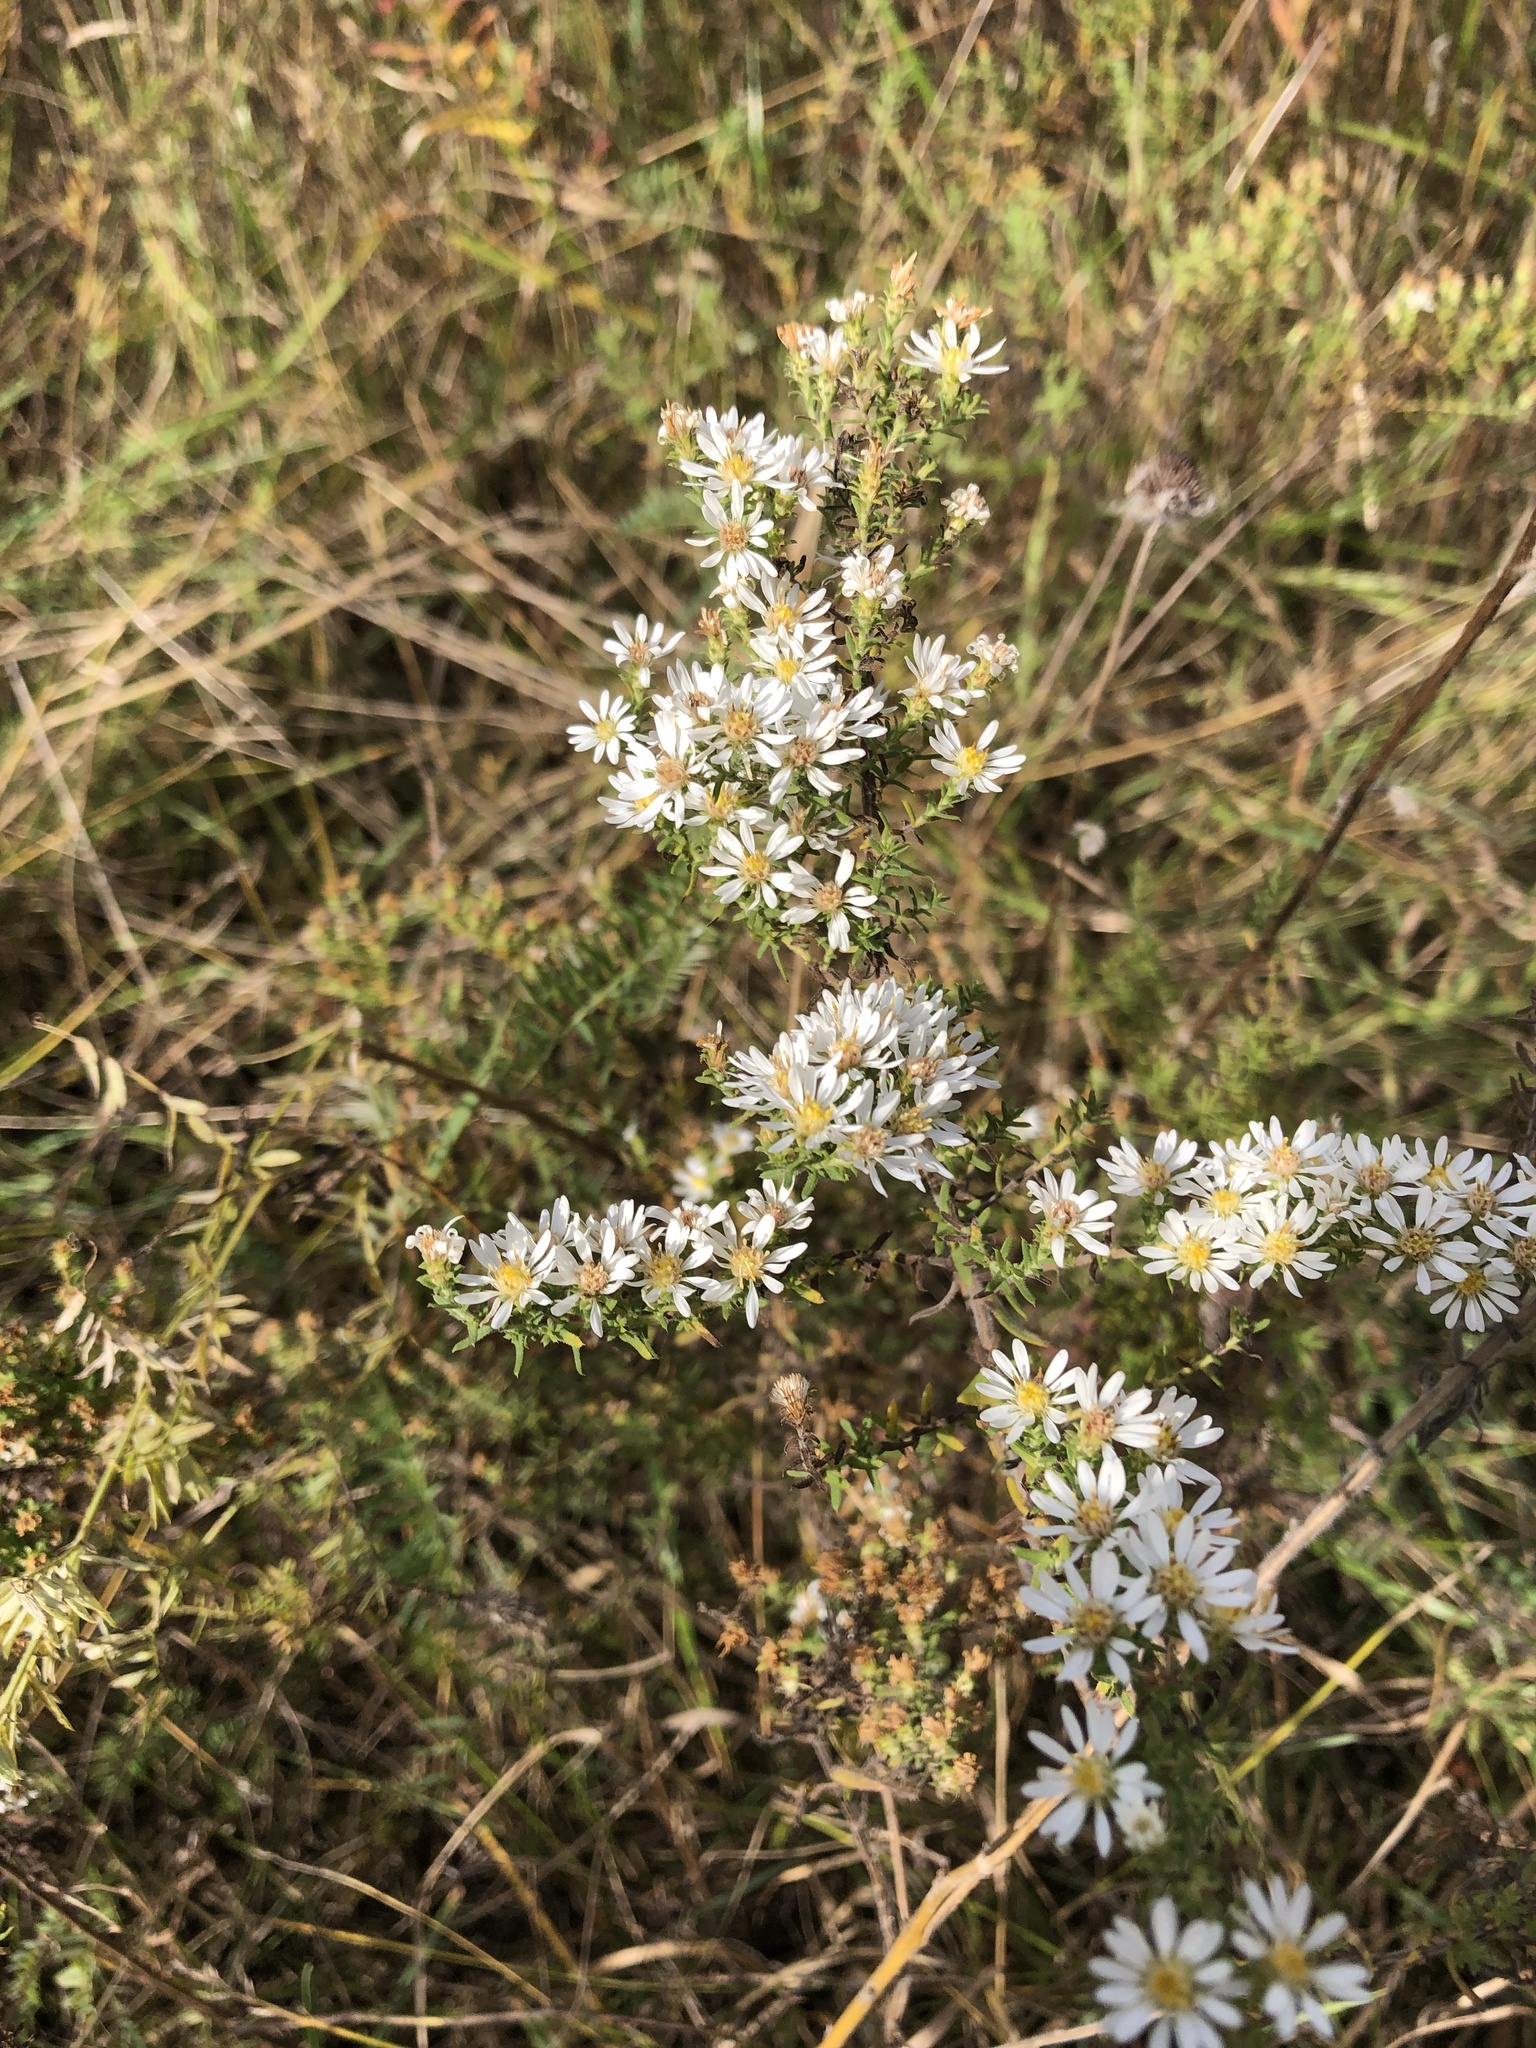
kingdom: Plantae
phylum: Tracheophyta
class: Magnoliopsida
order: Asterales
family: Asteraceae
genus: Symphyotrichum
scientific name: Symphyotrichum ericoides
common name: Heath aster
